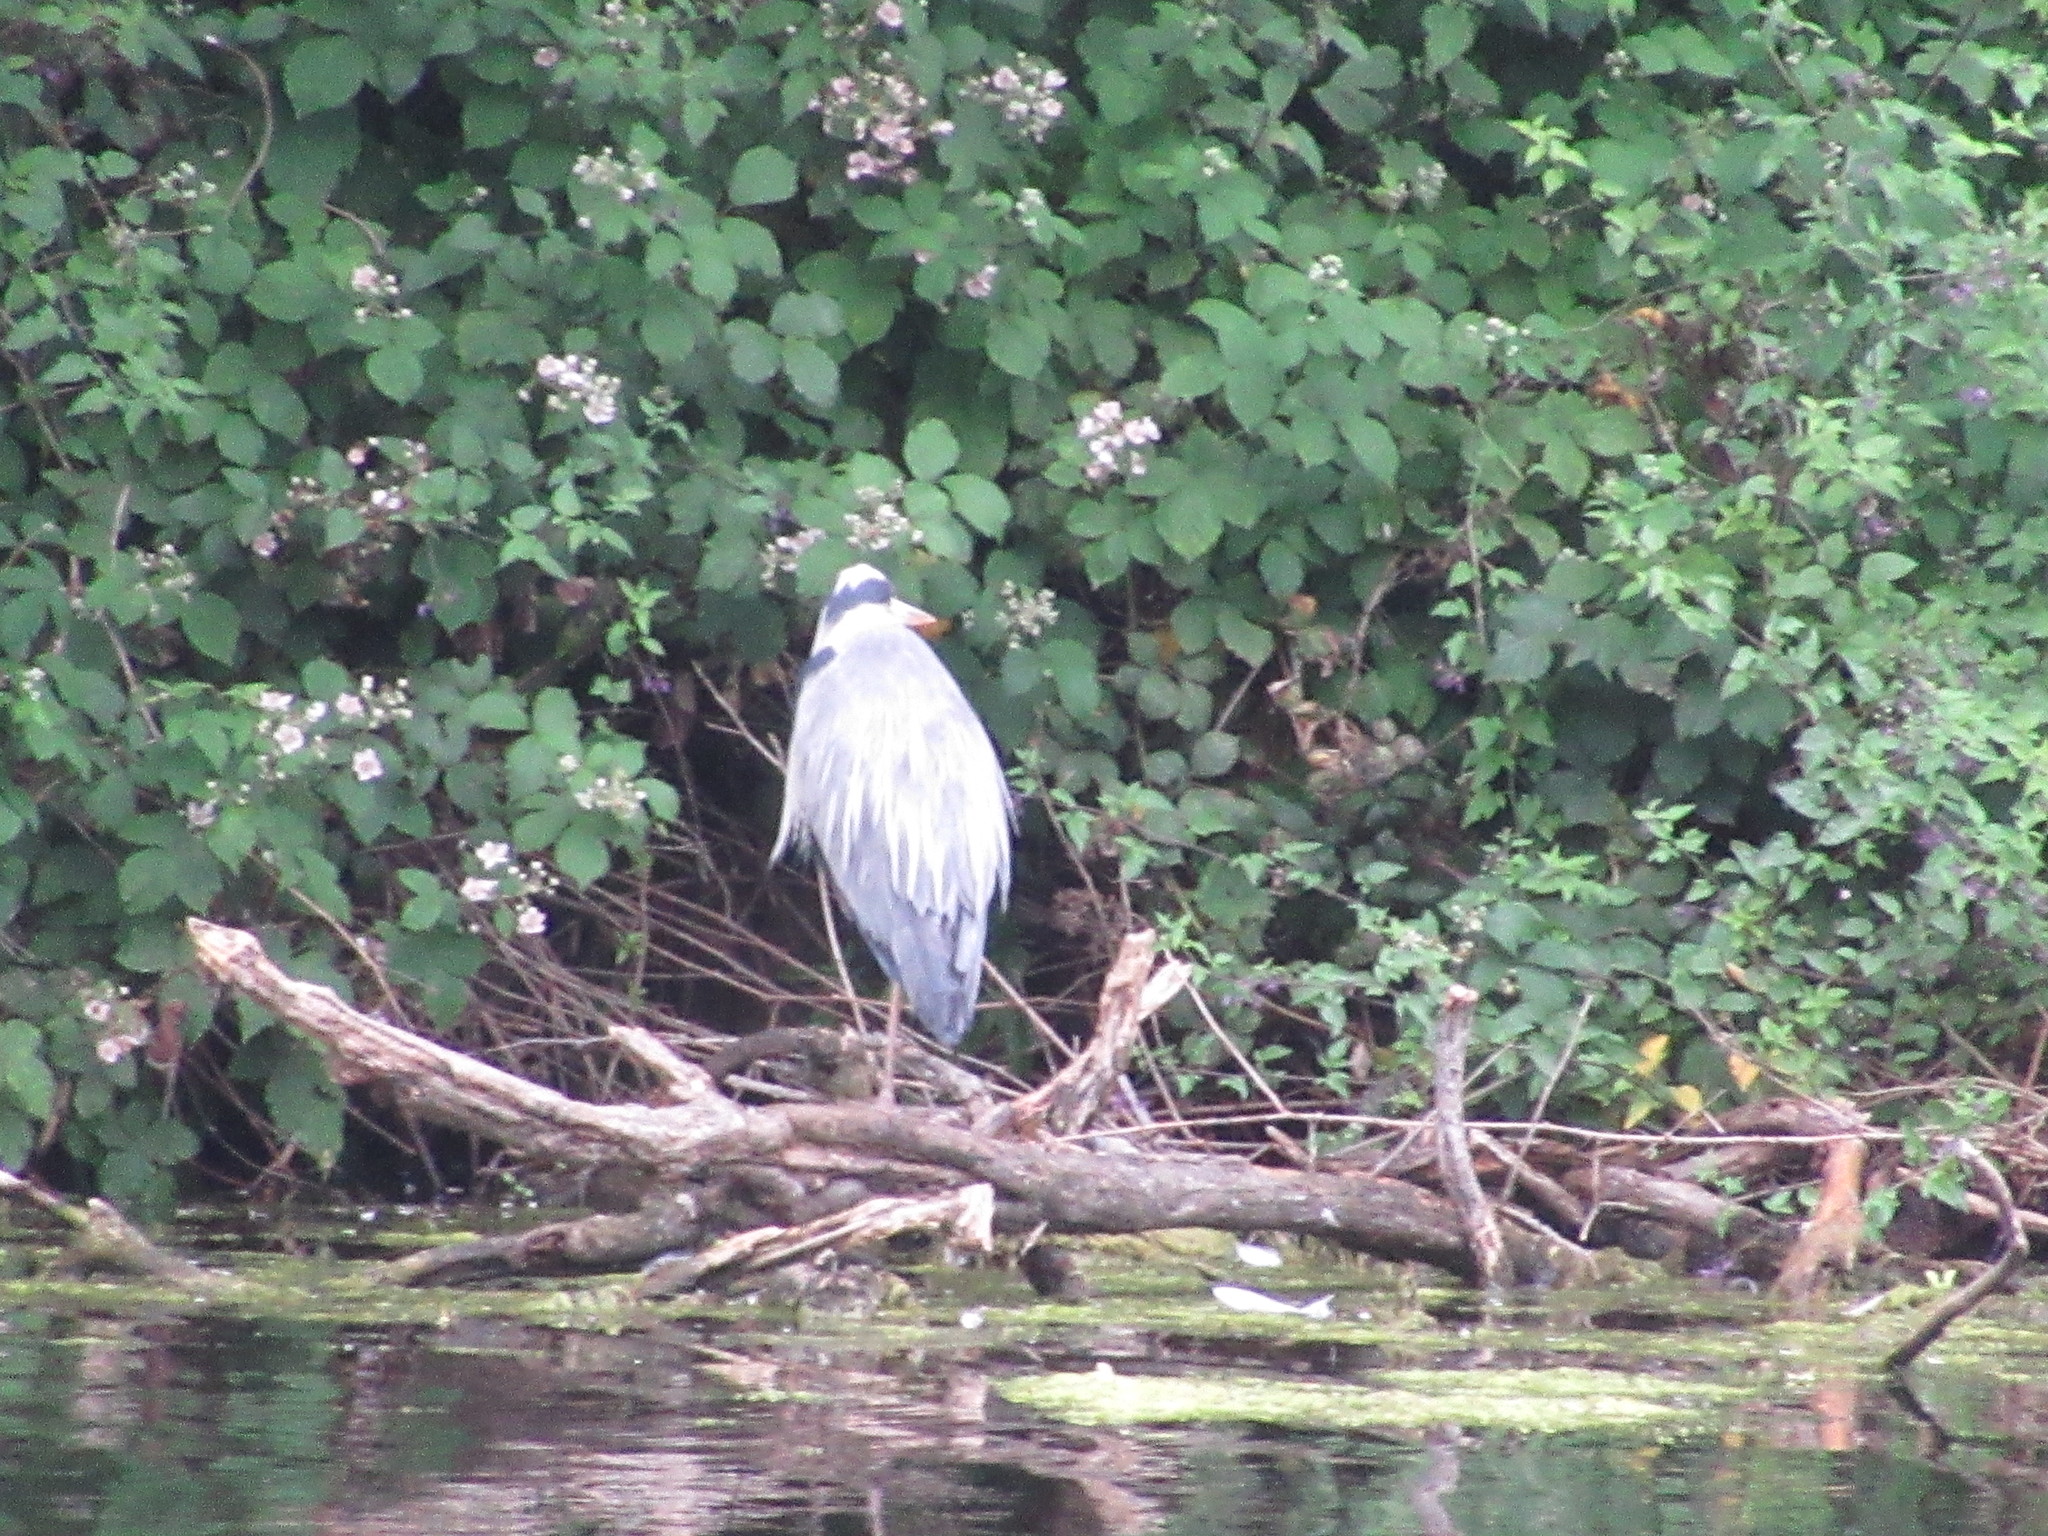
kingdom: Animalia
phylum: Chordata
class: Aves
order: Pelecaniformes
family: Ardeidae
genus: Ardea
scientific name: Ardea cinerea
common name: Grey heron
